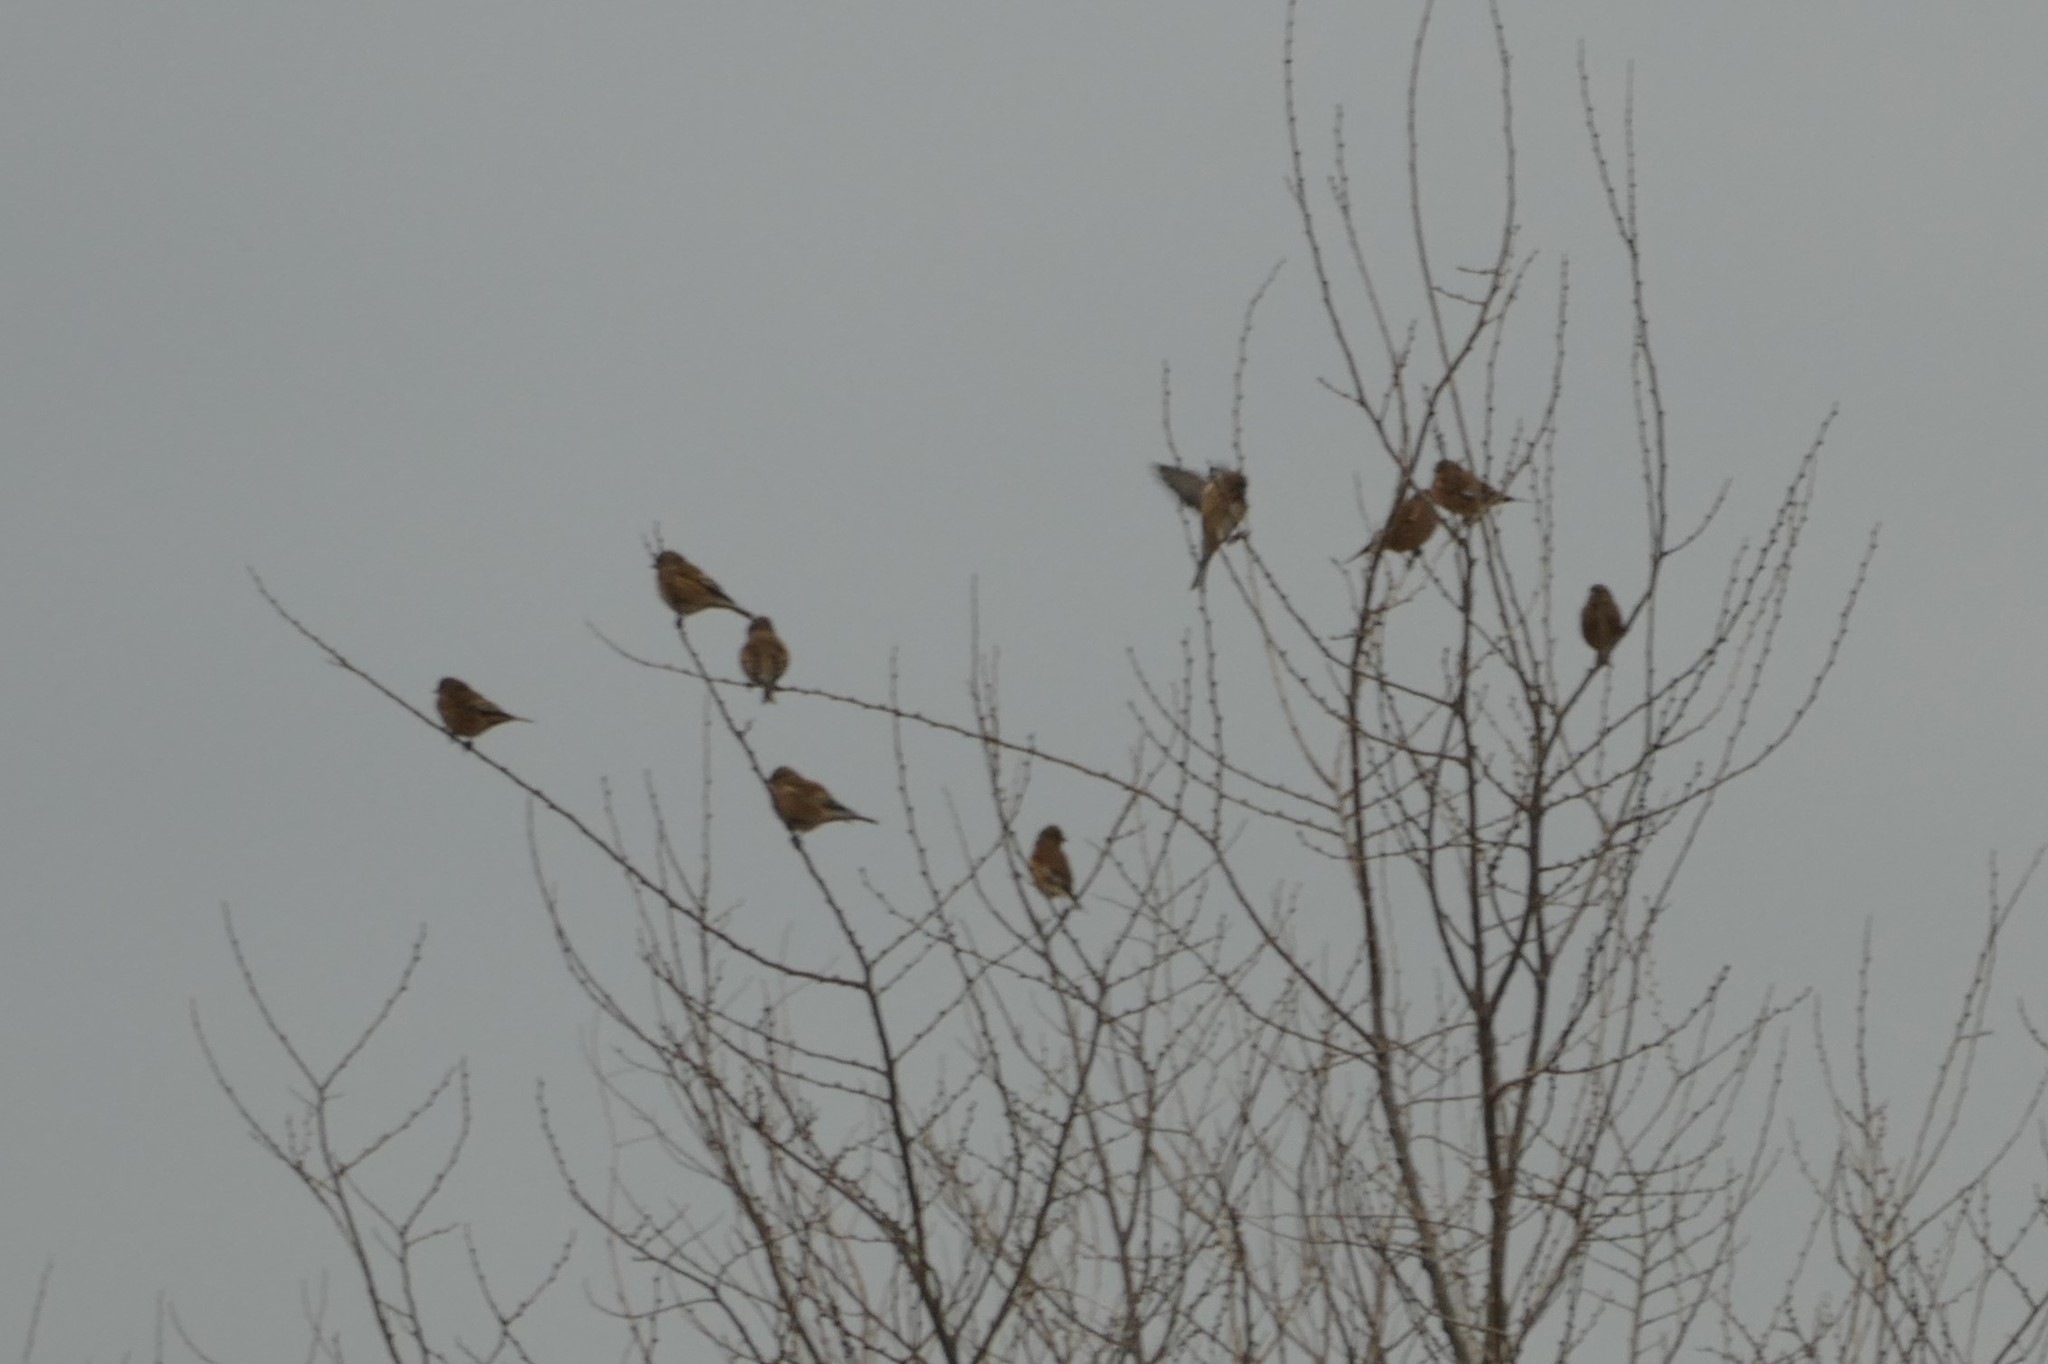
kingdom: Animalia
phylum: Chordata
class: Aves
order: Passeriformes
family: Fringillidae
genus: Linaria
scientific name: Linaria cannabina
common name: Common linnet
